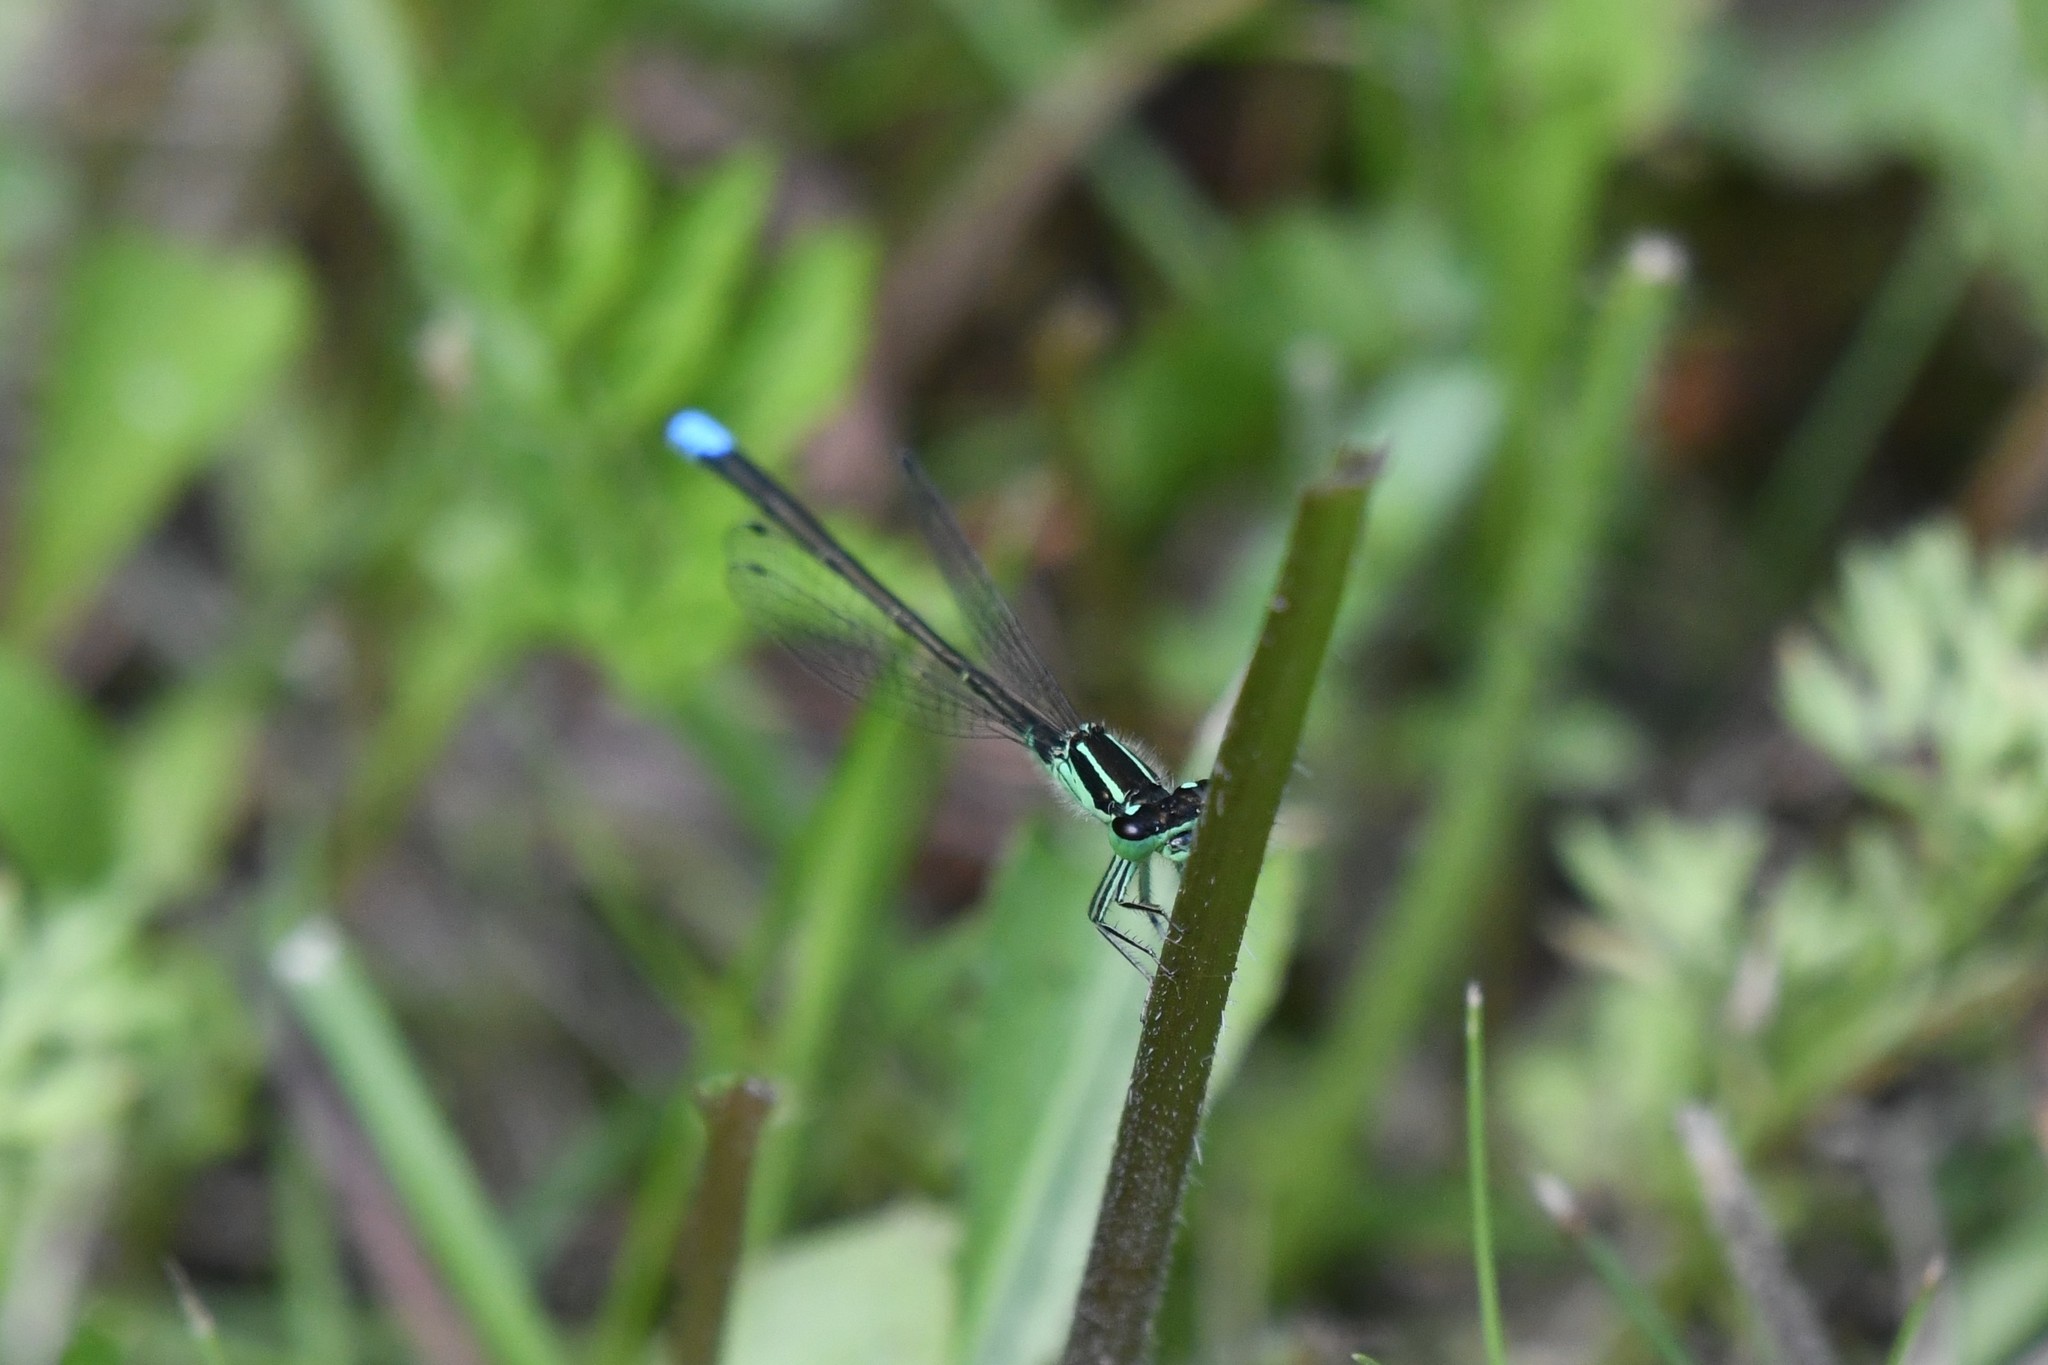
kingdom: Animalia
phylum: Arthropoda
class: Insecta
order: Odonata
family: Coenagrionidae
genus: Ischnura
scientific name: Ischnura verticalis
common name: Eastern forktail
